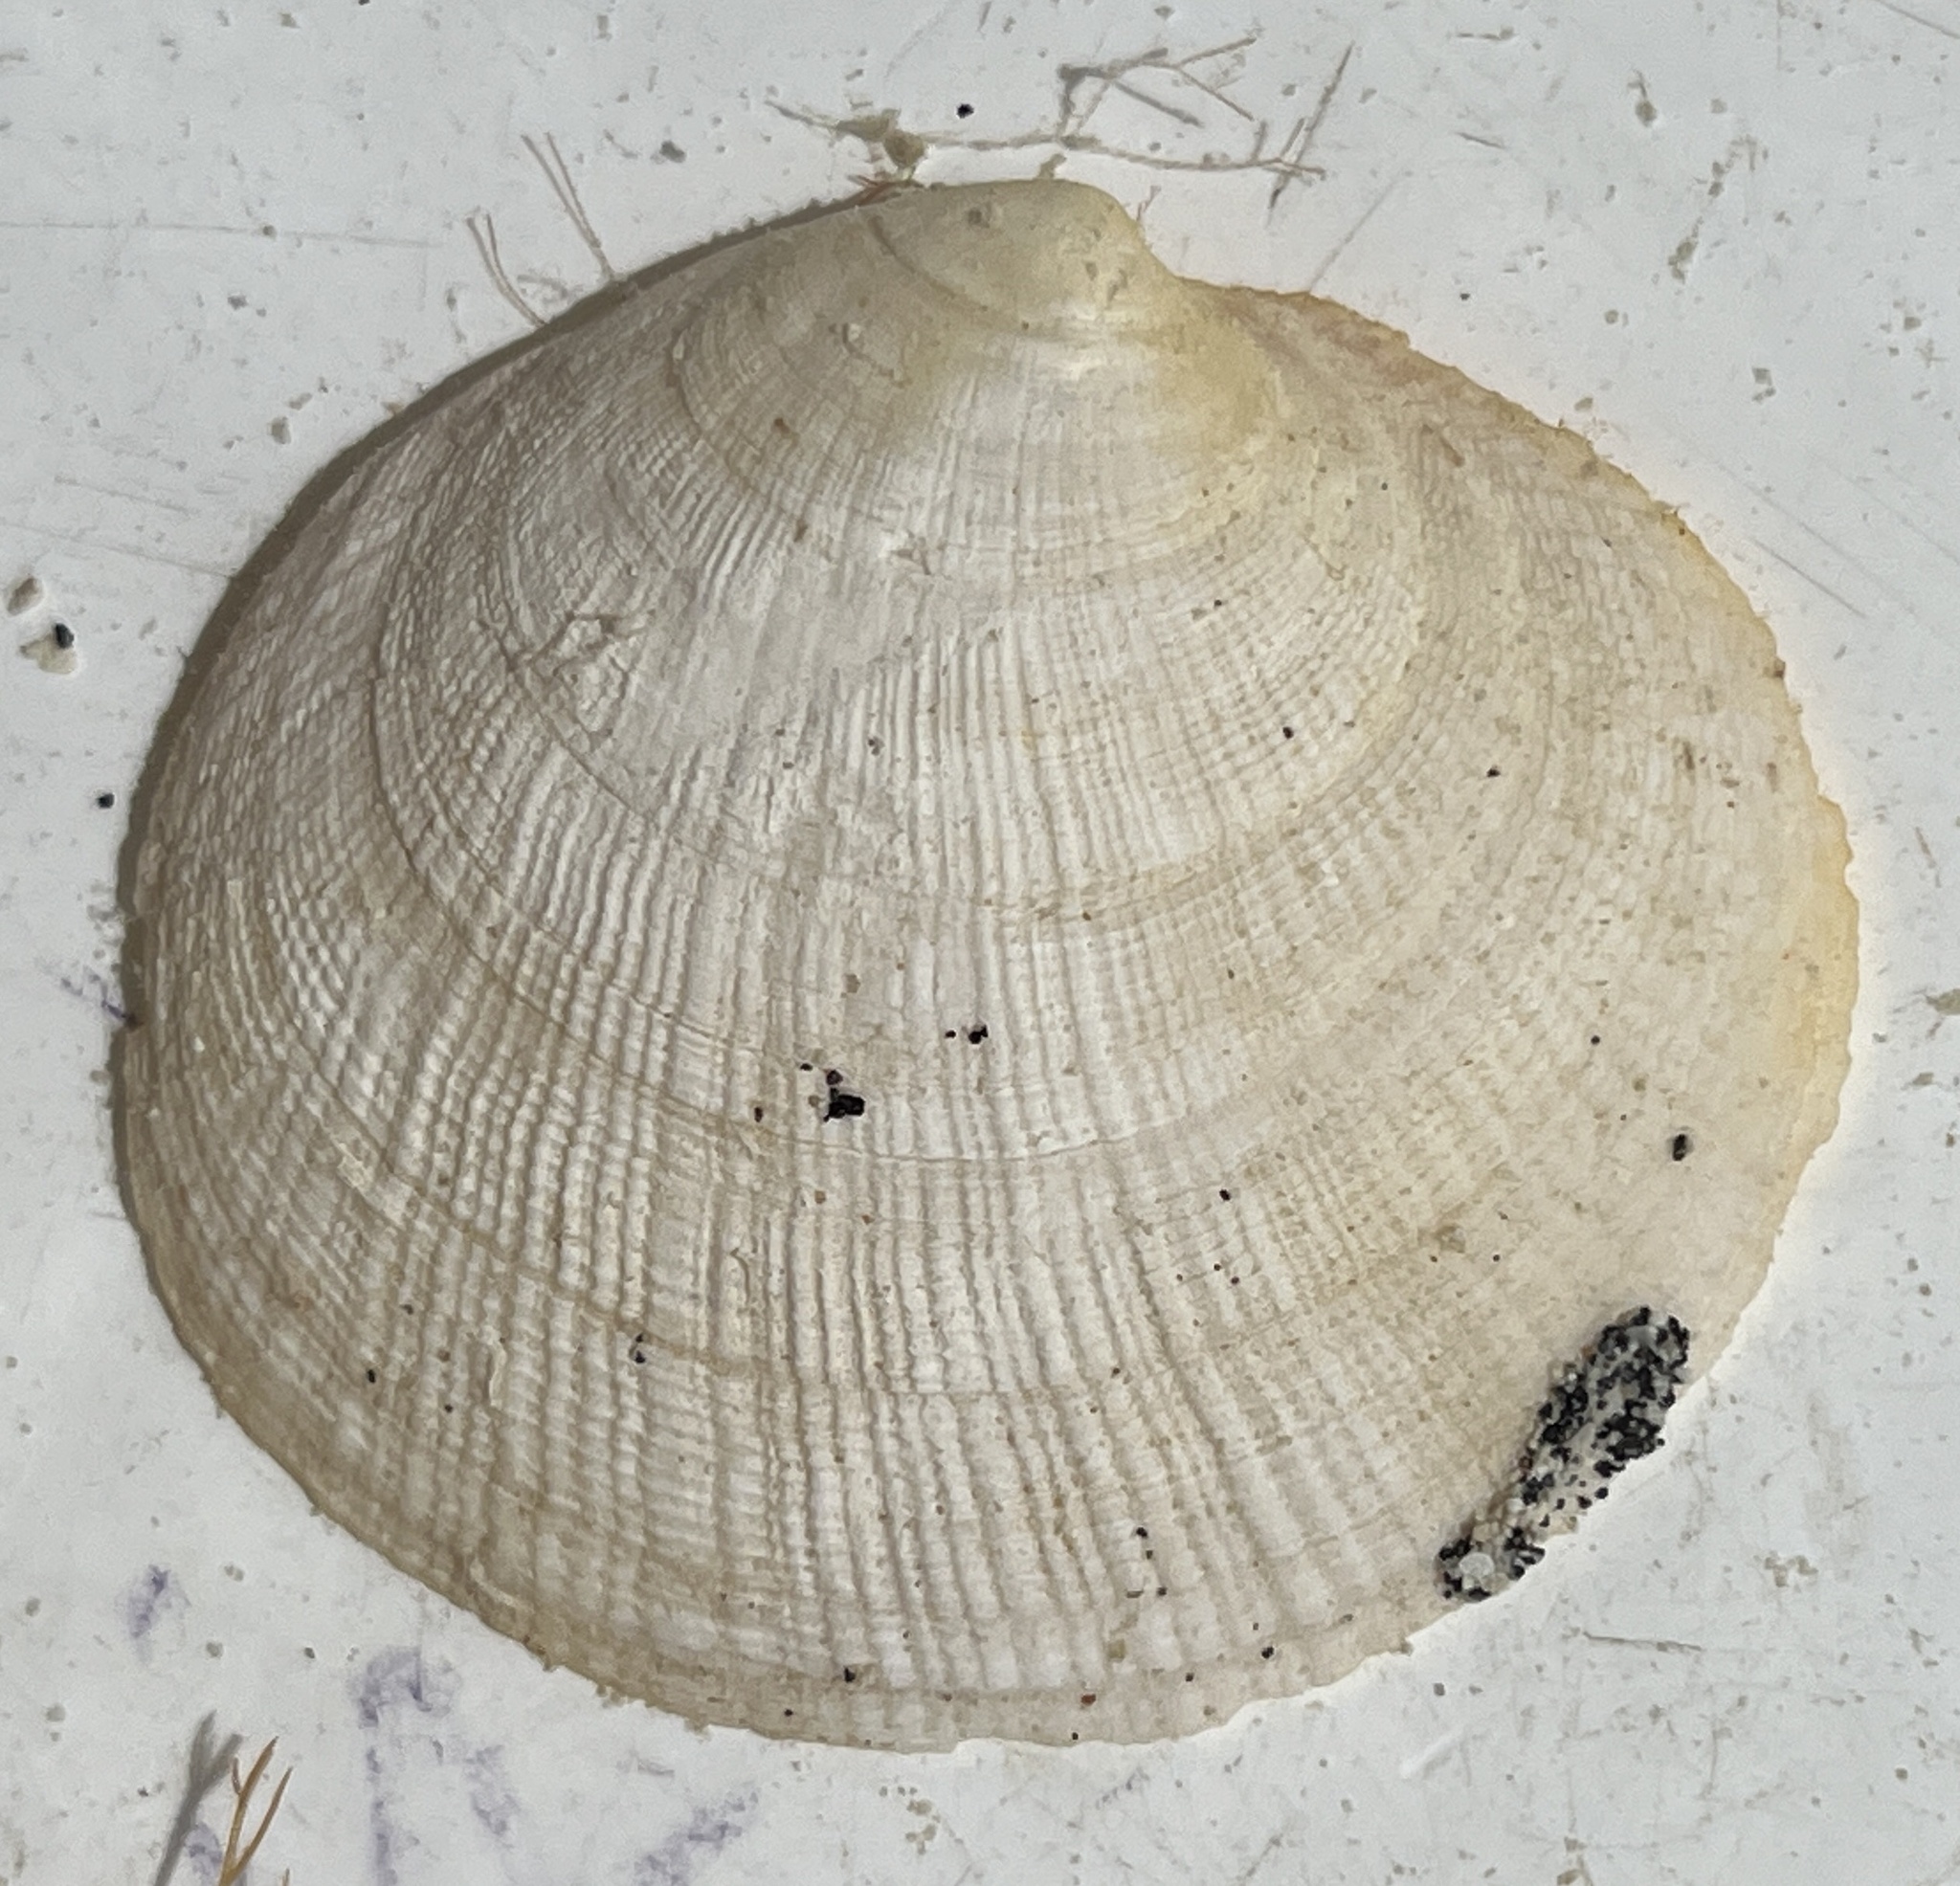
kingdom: Animalia
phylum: Mollusca
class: Bivalvia
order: Lucinida
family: Lucinidae
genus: Codakia
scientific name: Codakia orbicularis
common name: Tiger lucine
